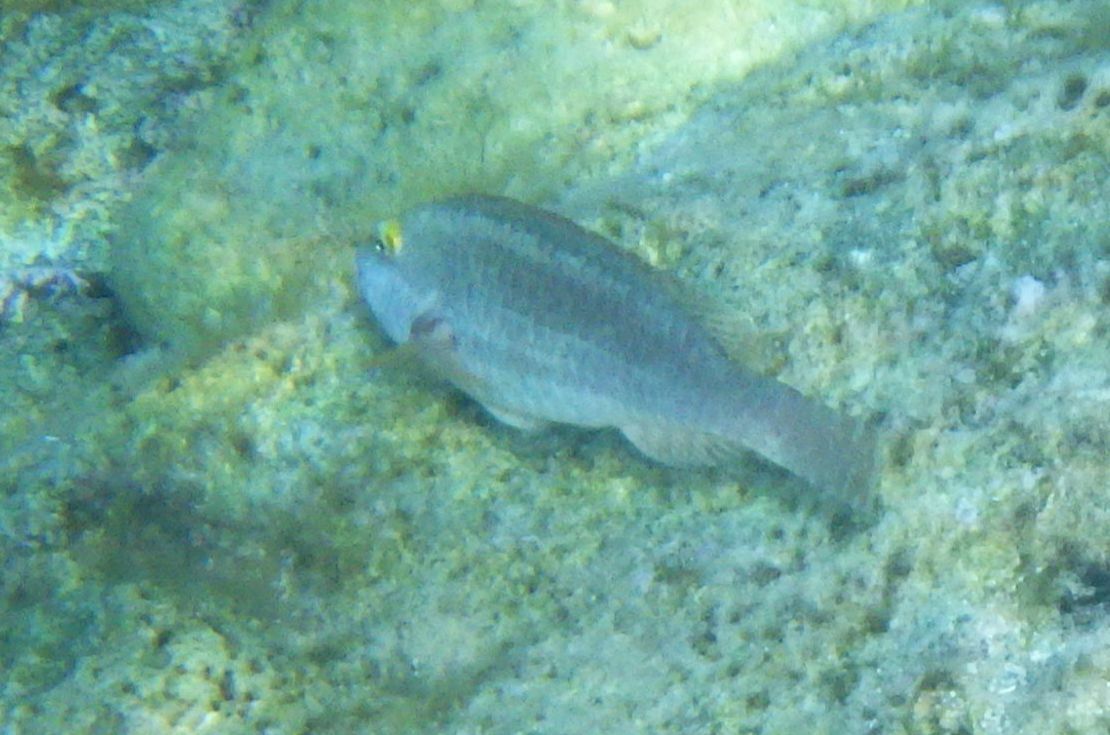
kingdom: Animalia
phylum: Chordata
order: Perciformes
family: Scaridae
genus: Sparisoma
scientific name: Sparisoma cretense
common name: Parrotfish
